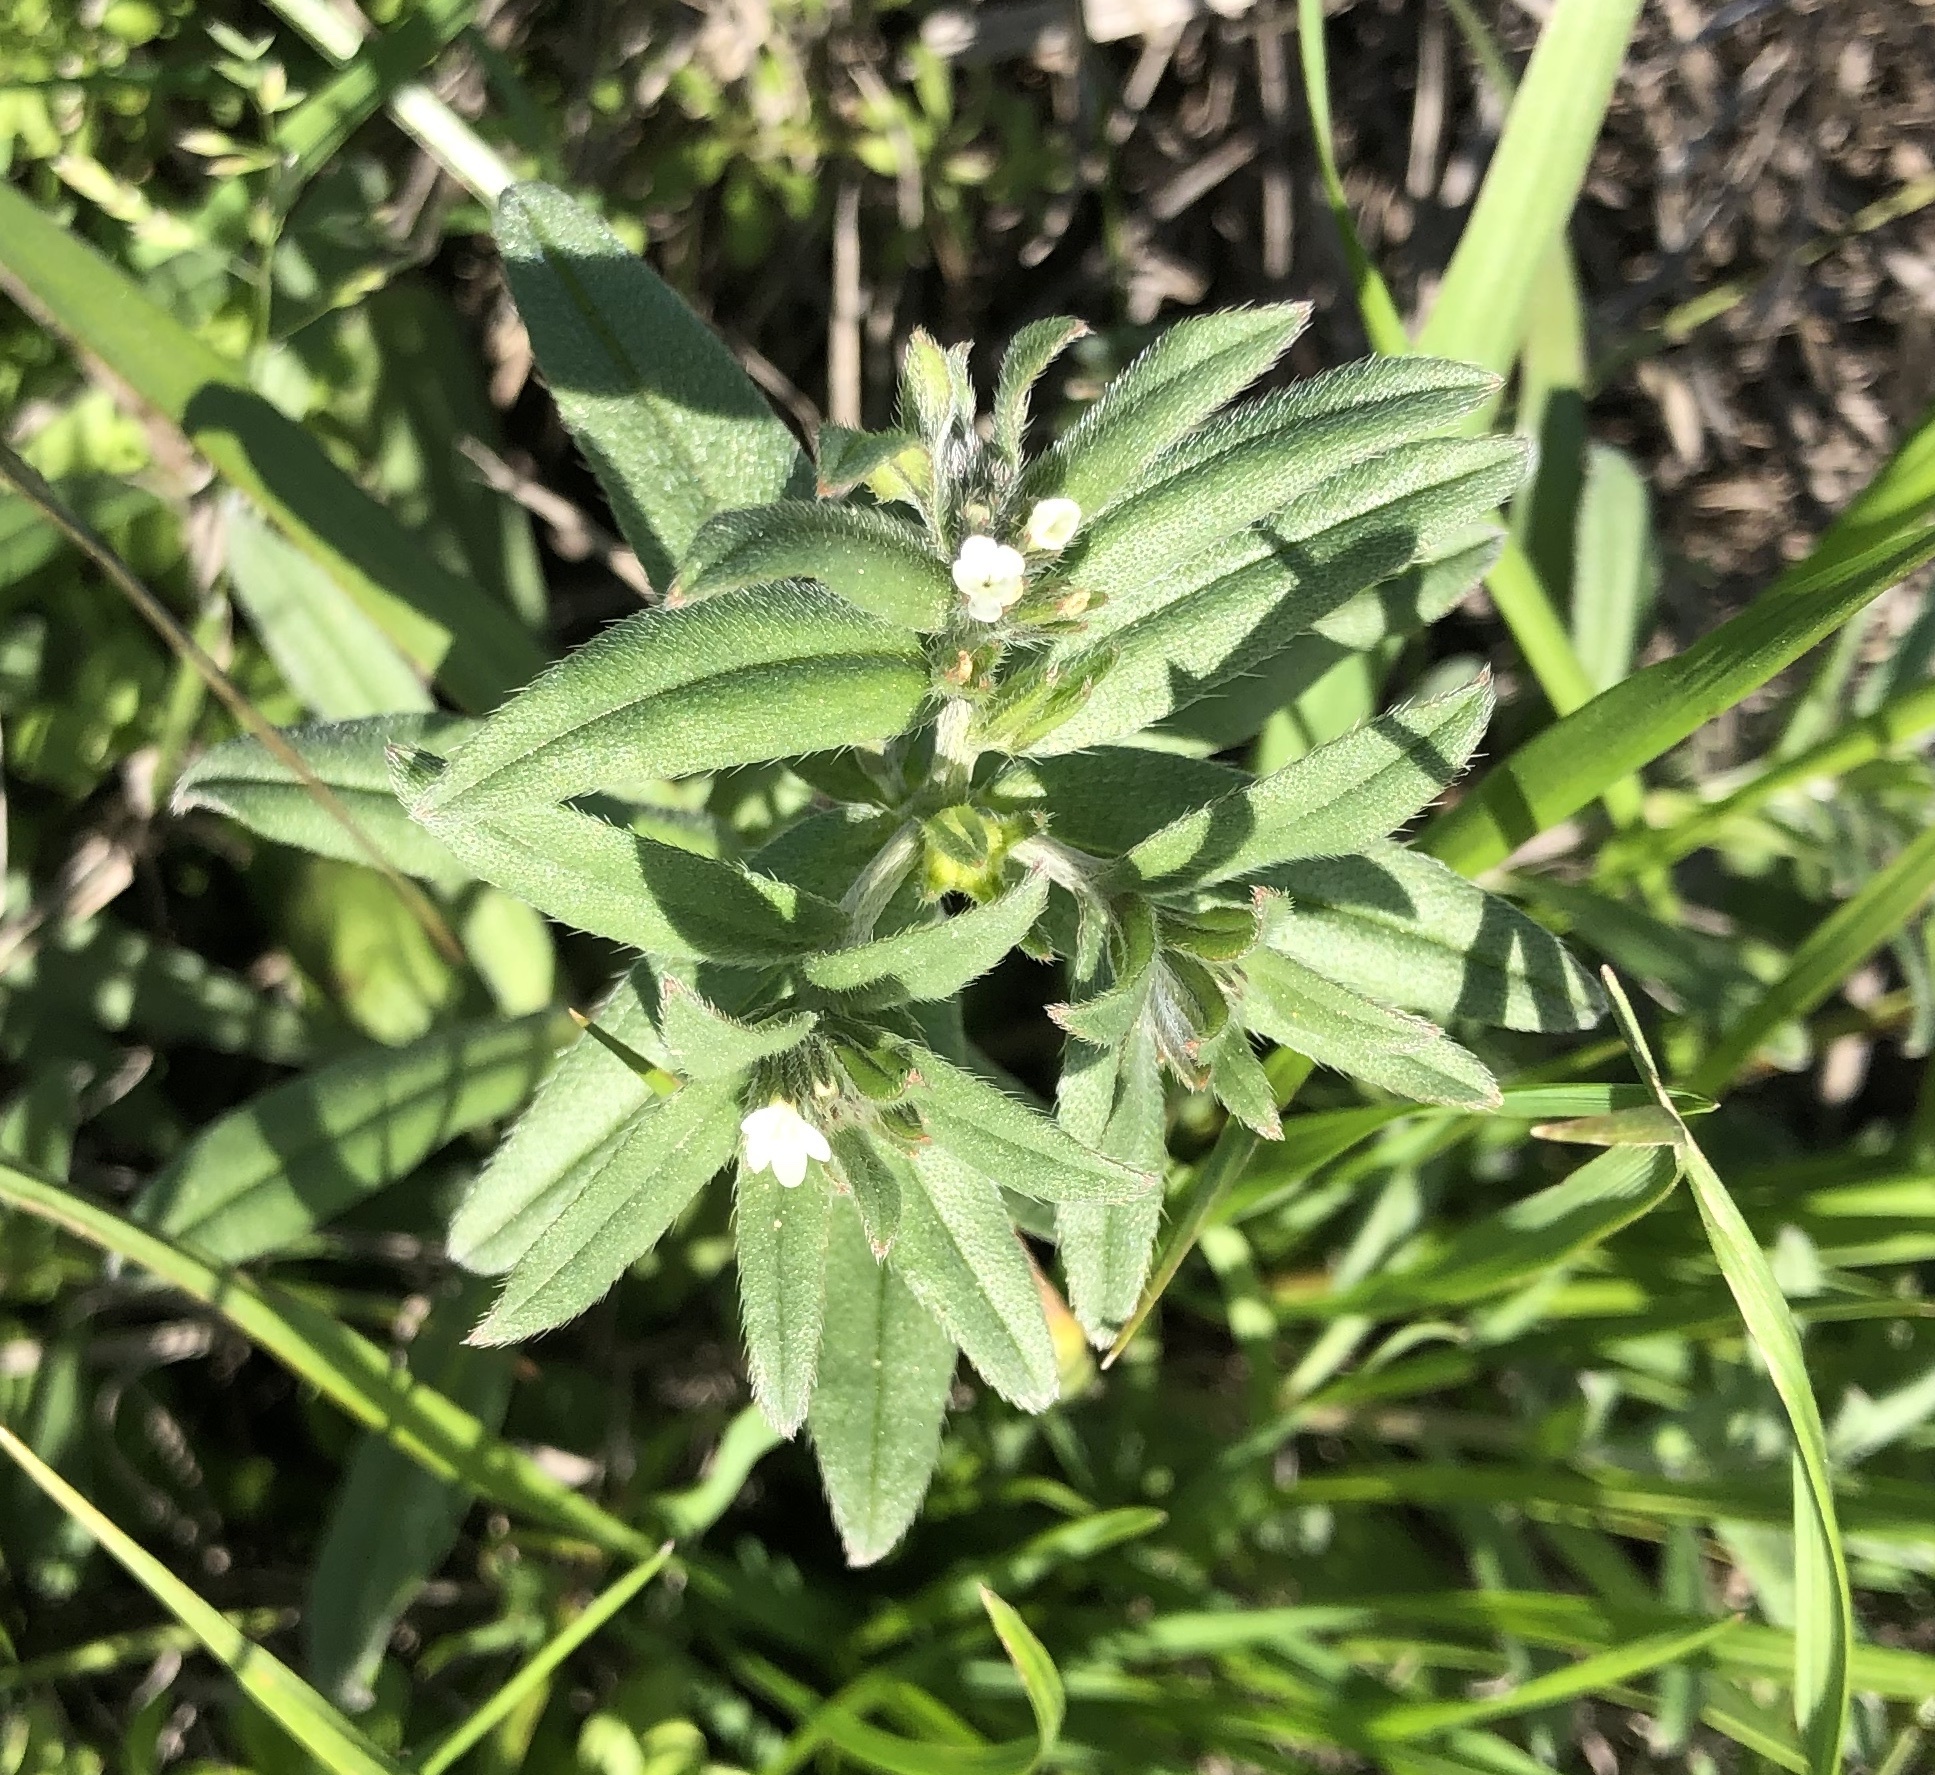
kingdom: Plantae
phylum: Tracheophyta
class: Magnoliopsida
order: Boraginales
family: Boraginaceae
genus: Buglossoides
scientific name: Buglossoides arvensis
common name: Corn gromwell
